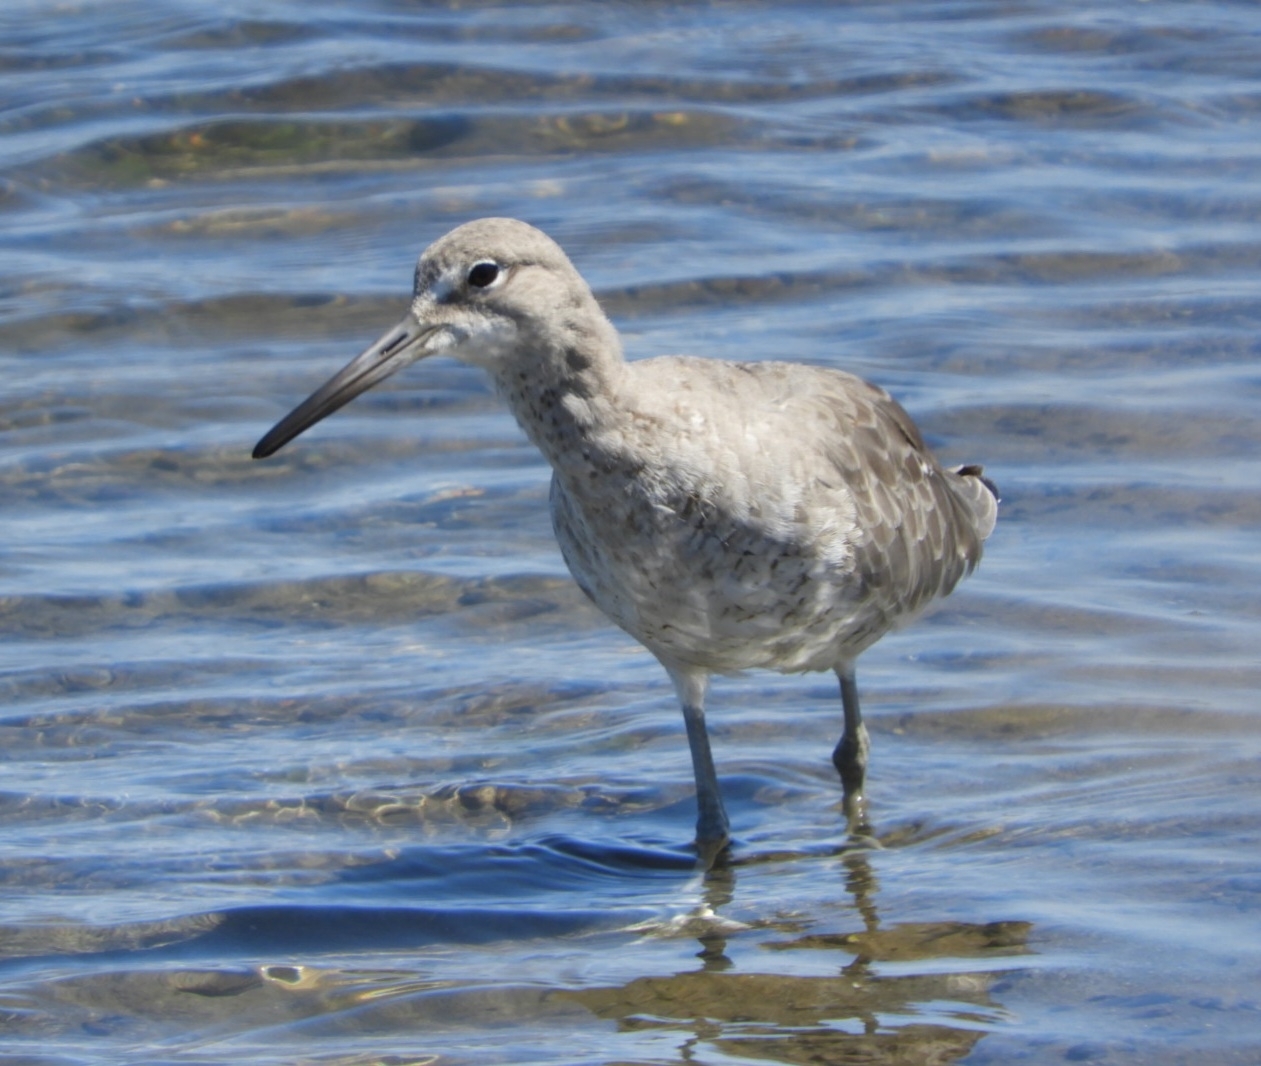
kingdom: Animalia
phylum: Chordata
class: Aves
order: Charadriiformes
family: Scolopacidae
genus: Tringa
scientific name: Tringa semipalmata
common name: Willet
